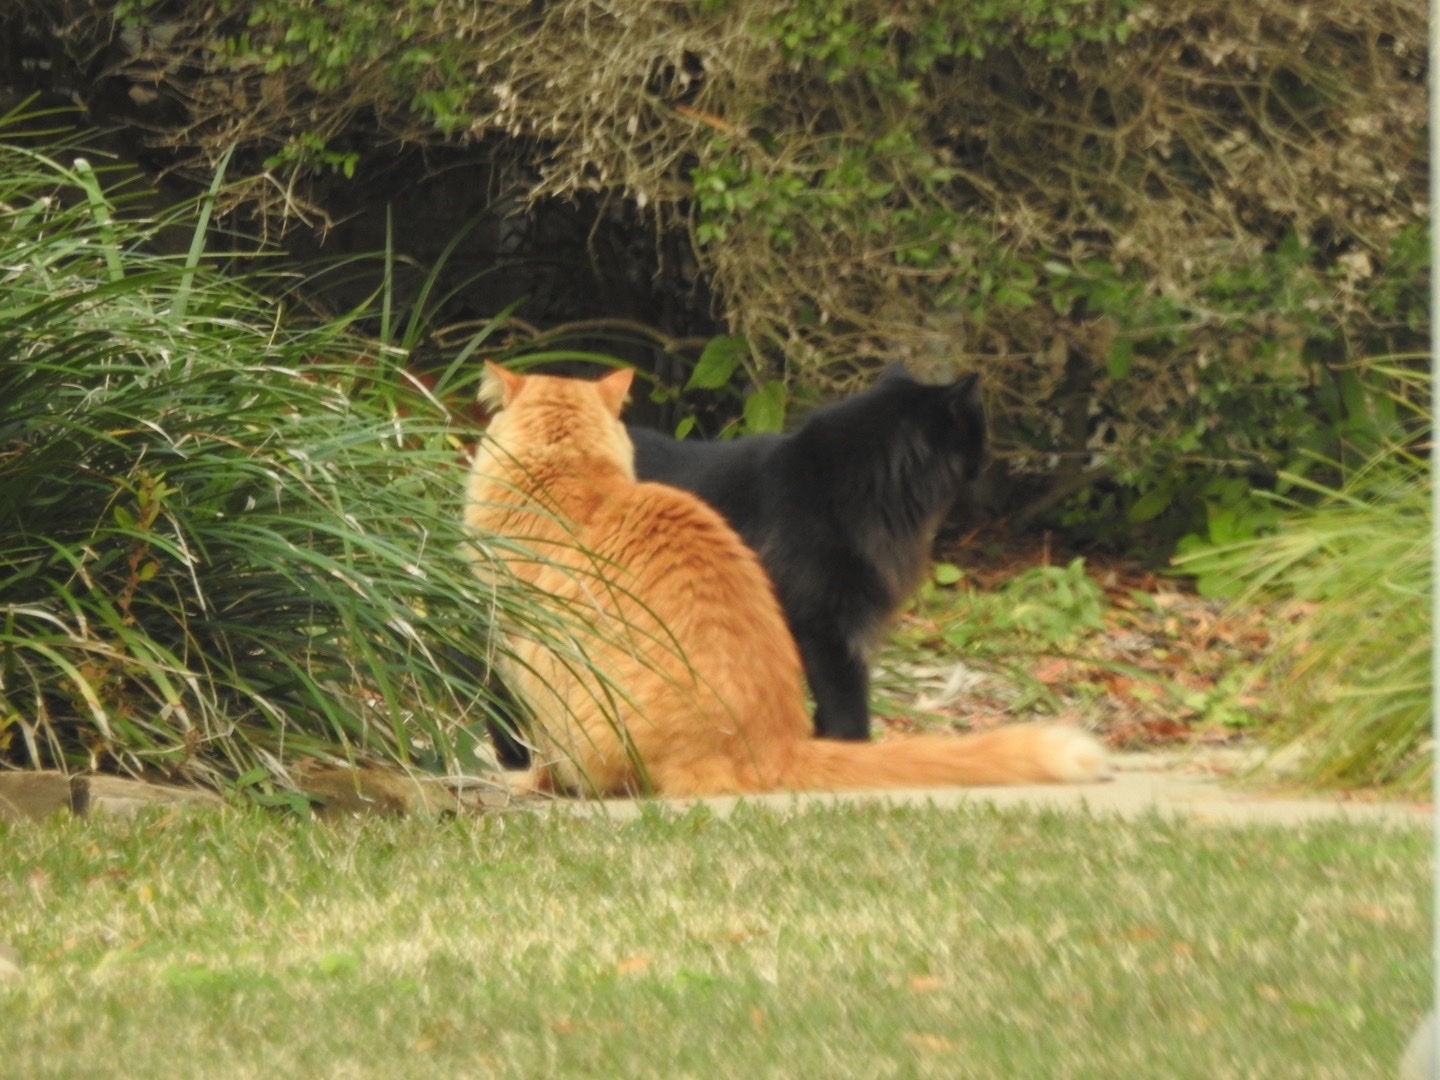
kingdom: Animalia
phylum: Chordata
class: Mammalia
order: Carnivora
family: Felidae
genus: Felis
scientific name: Felis catus
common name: Domestic cat
